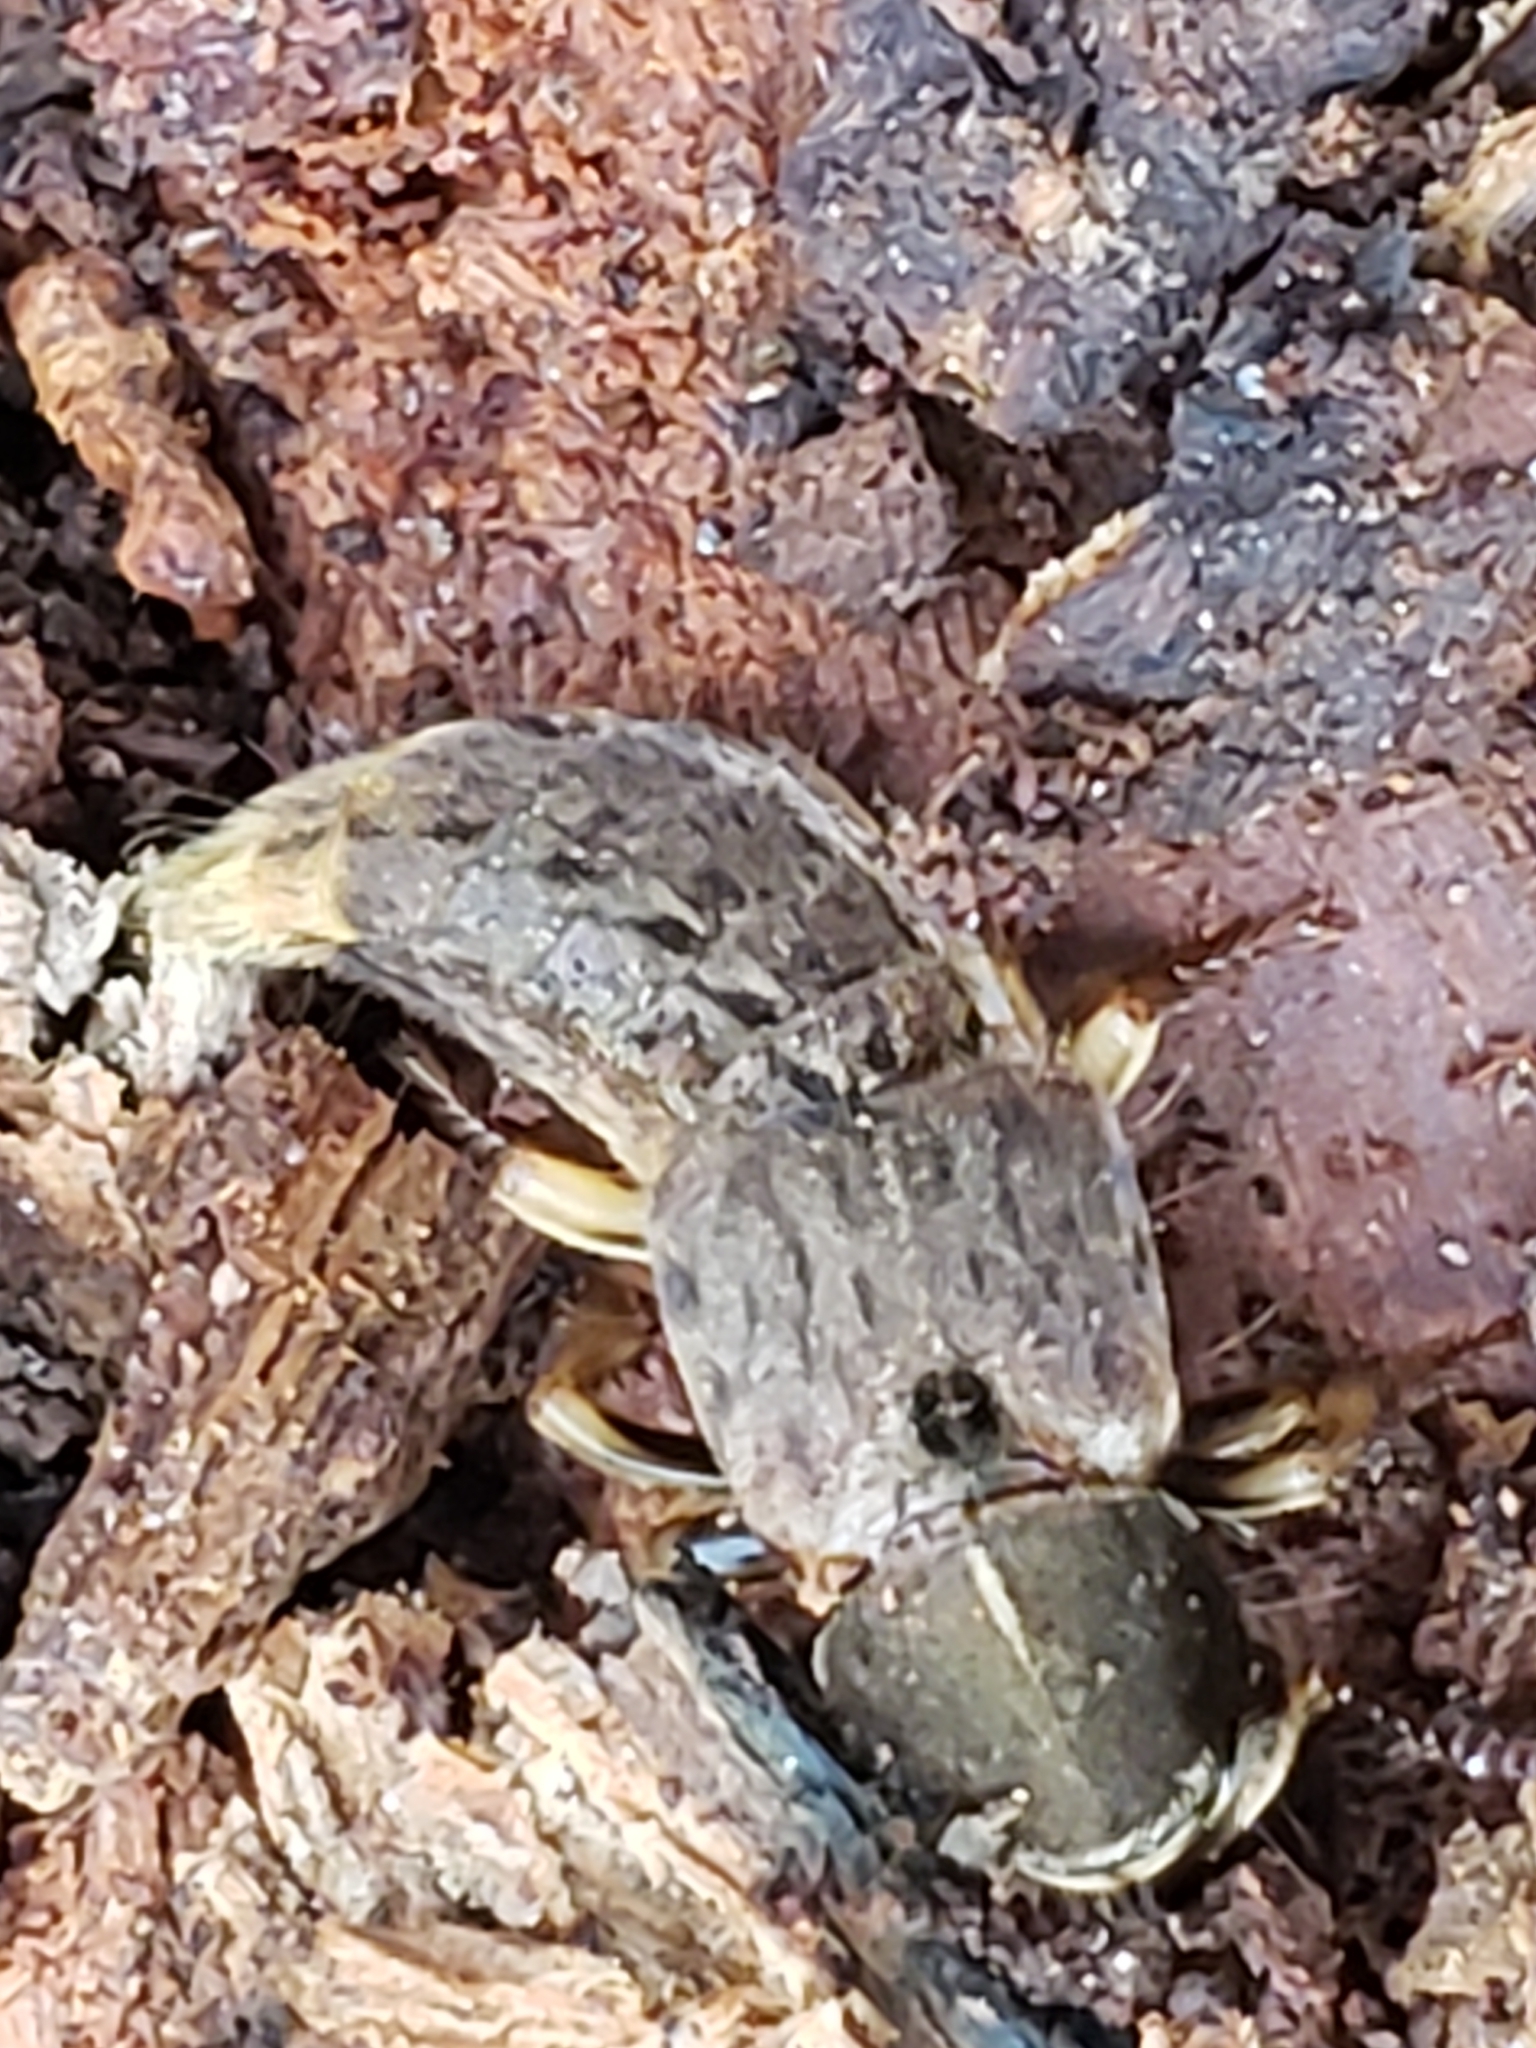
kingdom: Animalia
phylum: Arthropoda
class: Insecta
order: Coleoptera
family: Staphylinidae
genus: Platydracus
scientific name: Platydracus maculosus
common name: Brown rove beetle
